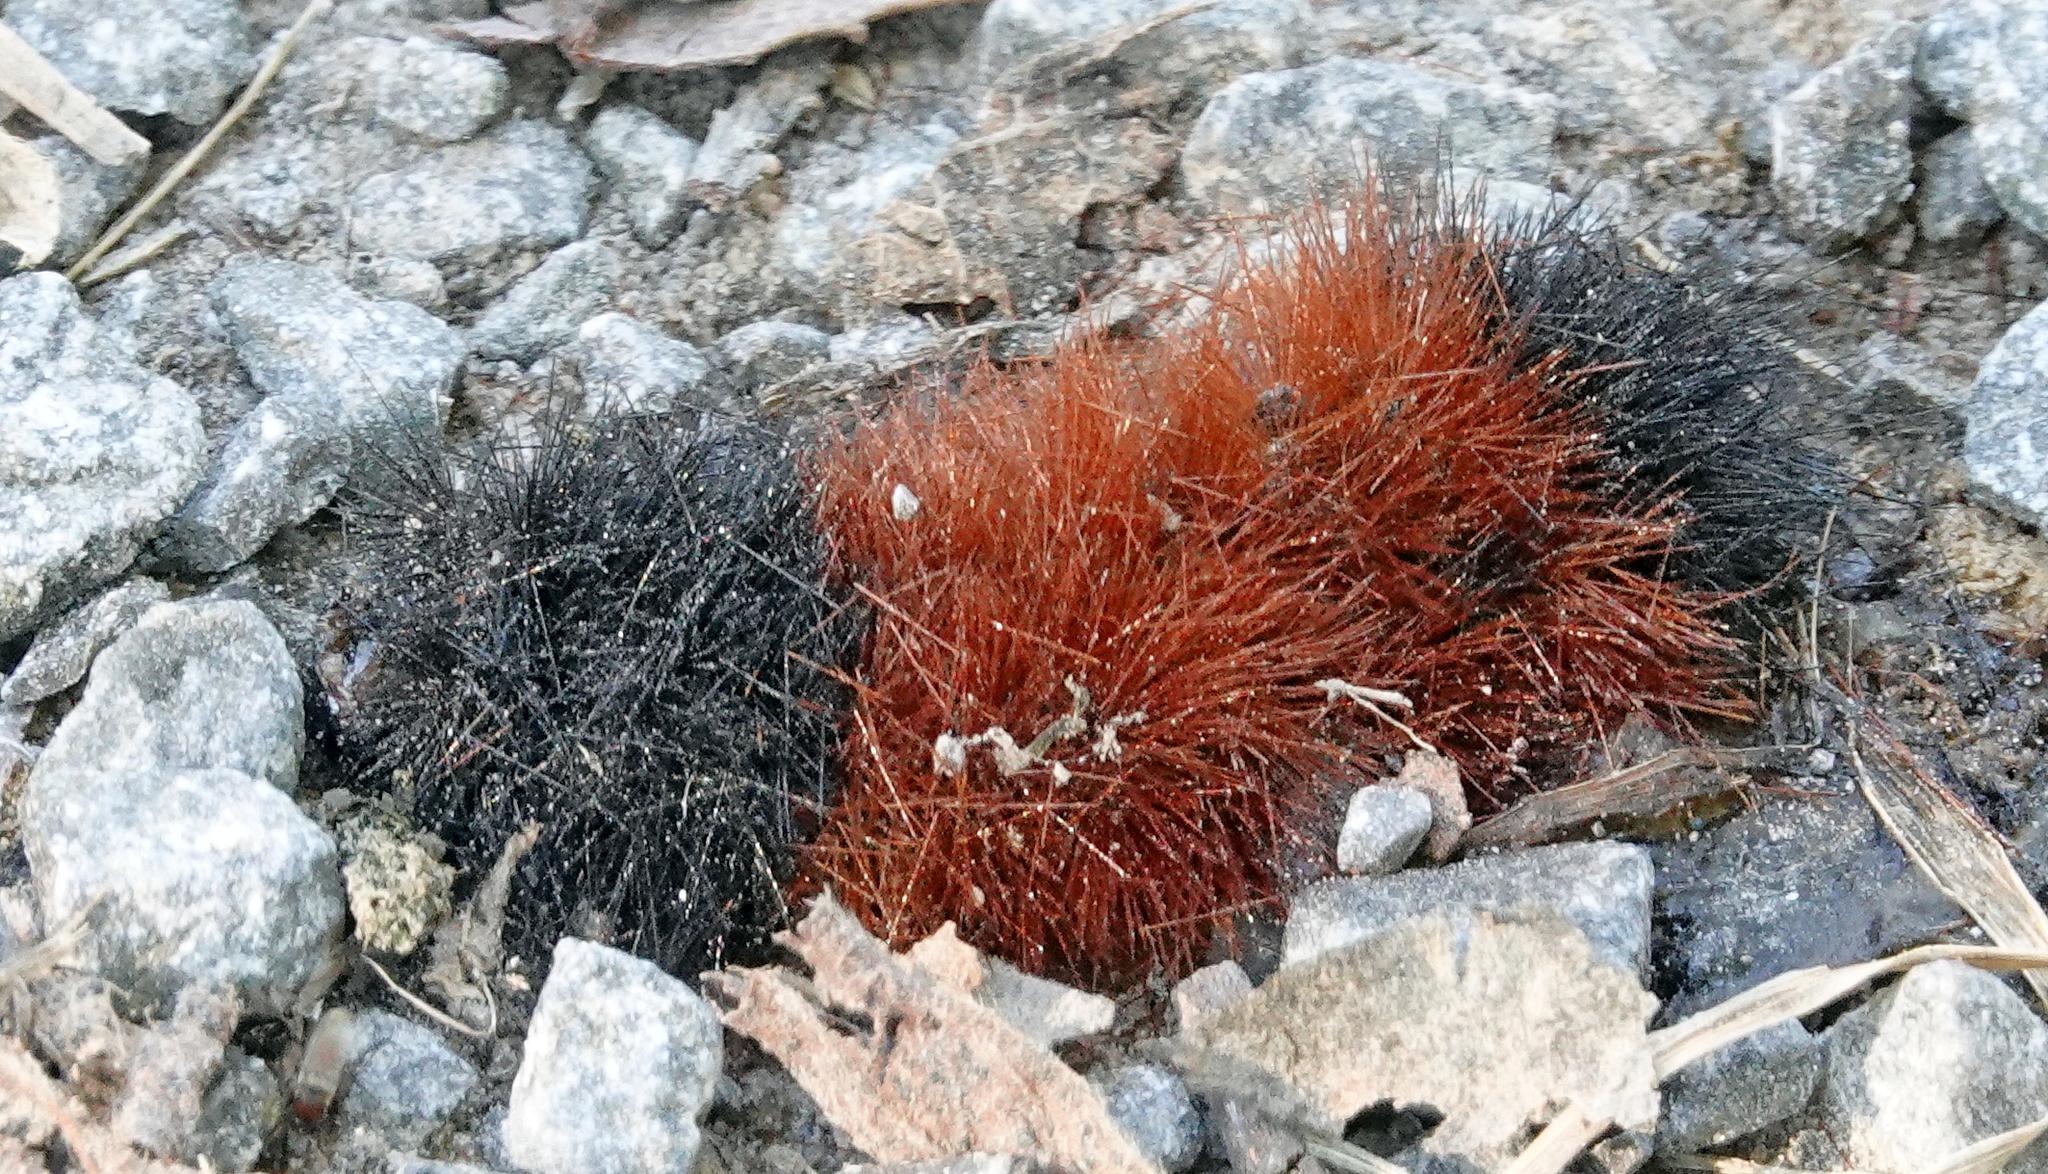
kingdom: Animalia
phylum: Arthropoda
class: Insecta
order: Lepidoptera
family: Erebidae
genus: Pyrrharctia
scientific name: Pyrrharctia isabella
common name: Isabella tiger moth
